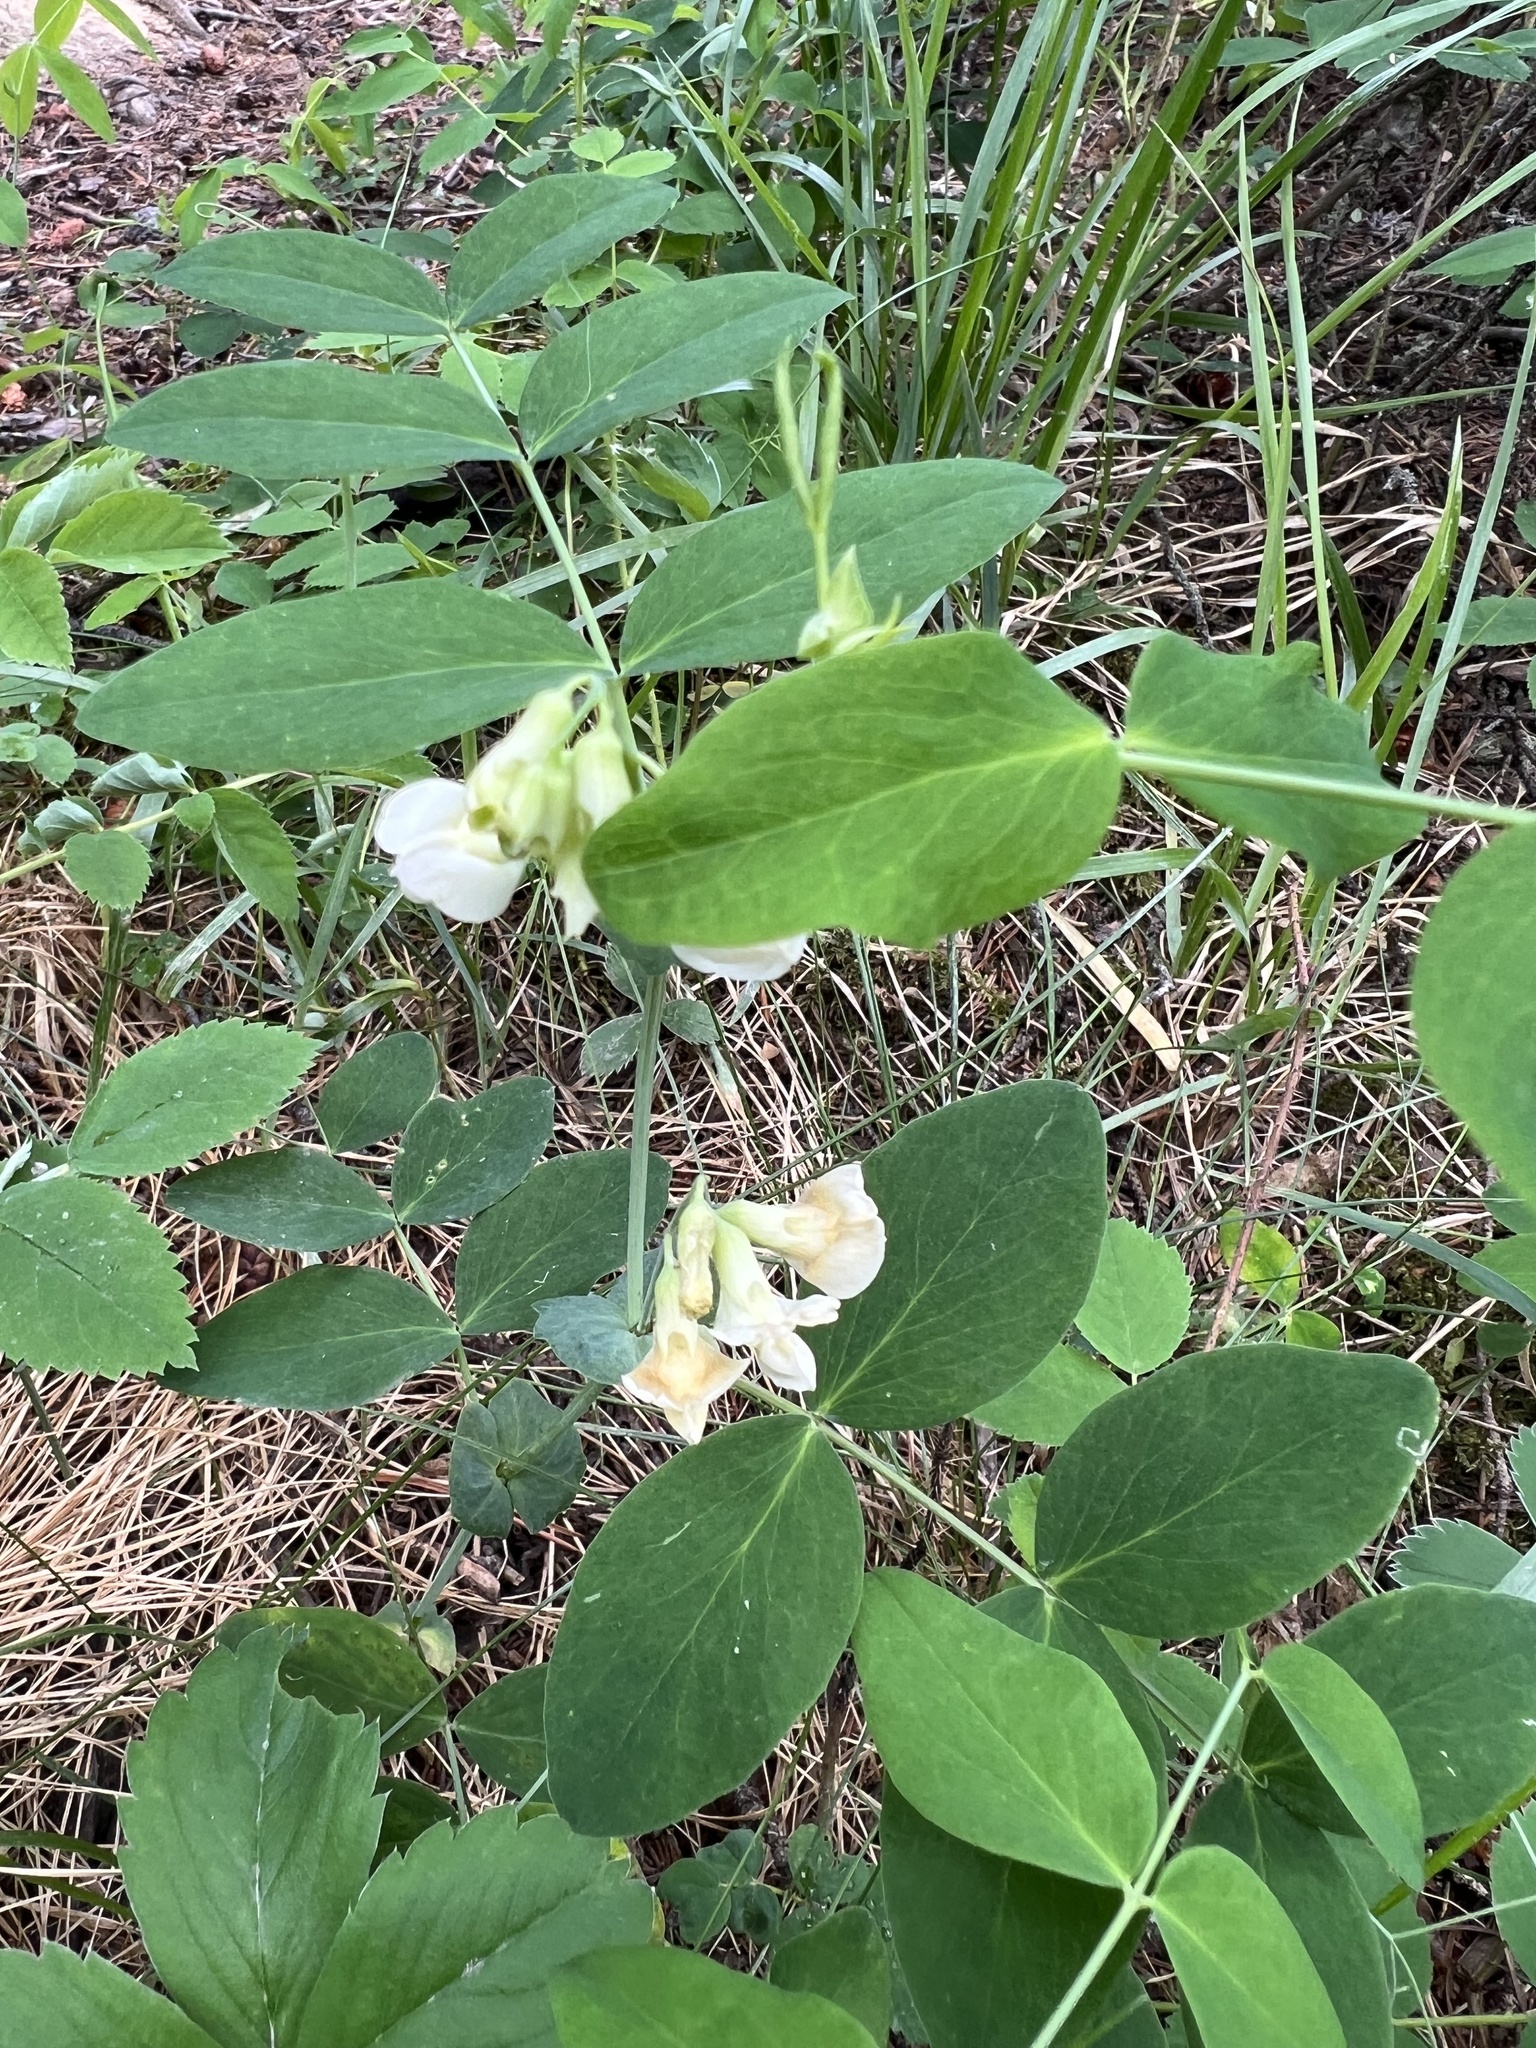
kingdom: Plantae
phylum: Tracheophyta
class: Magnoliopsida
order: Fabales
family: Fabaceae
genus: Lathyrus
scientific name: Lathyrus ochroleucus
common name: Pale vetchling
